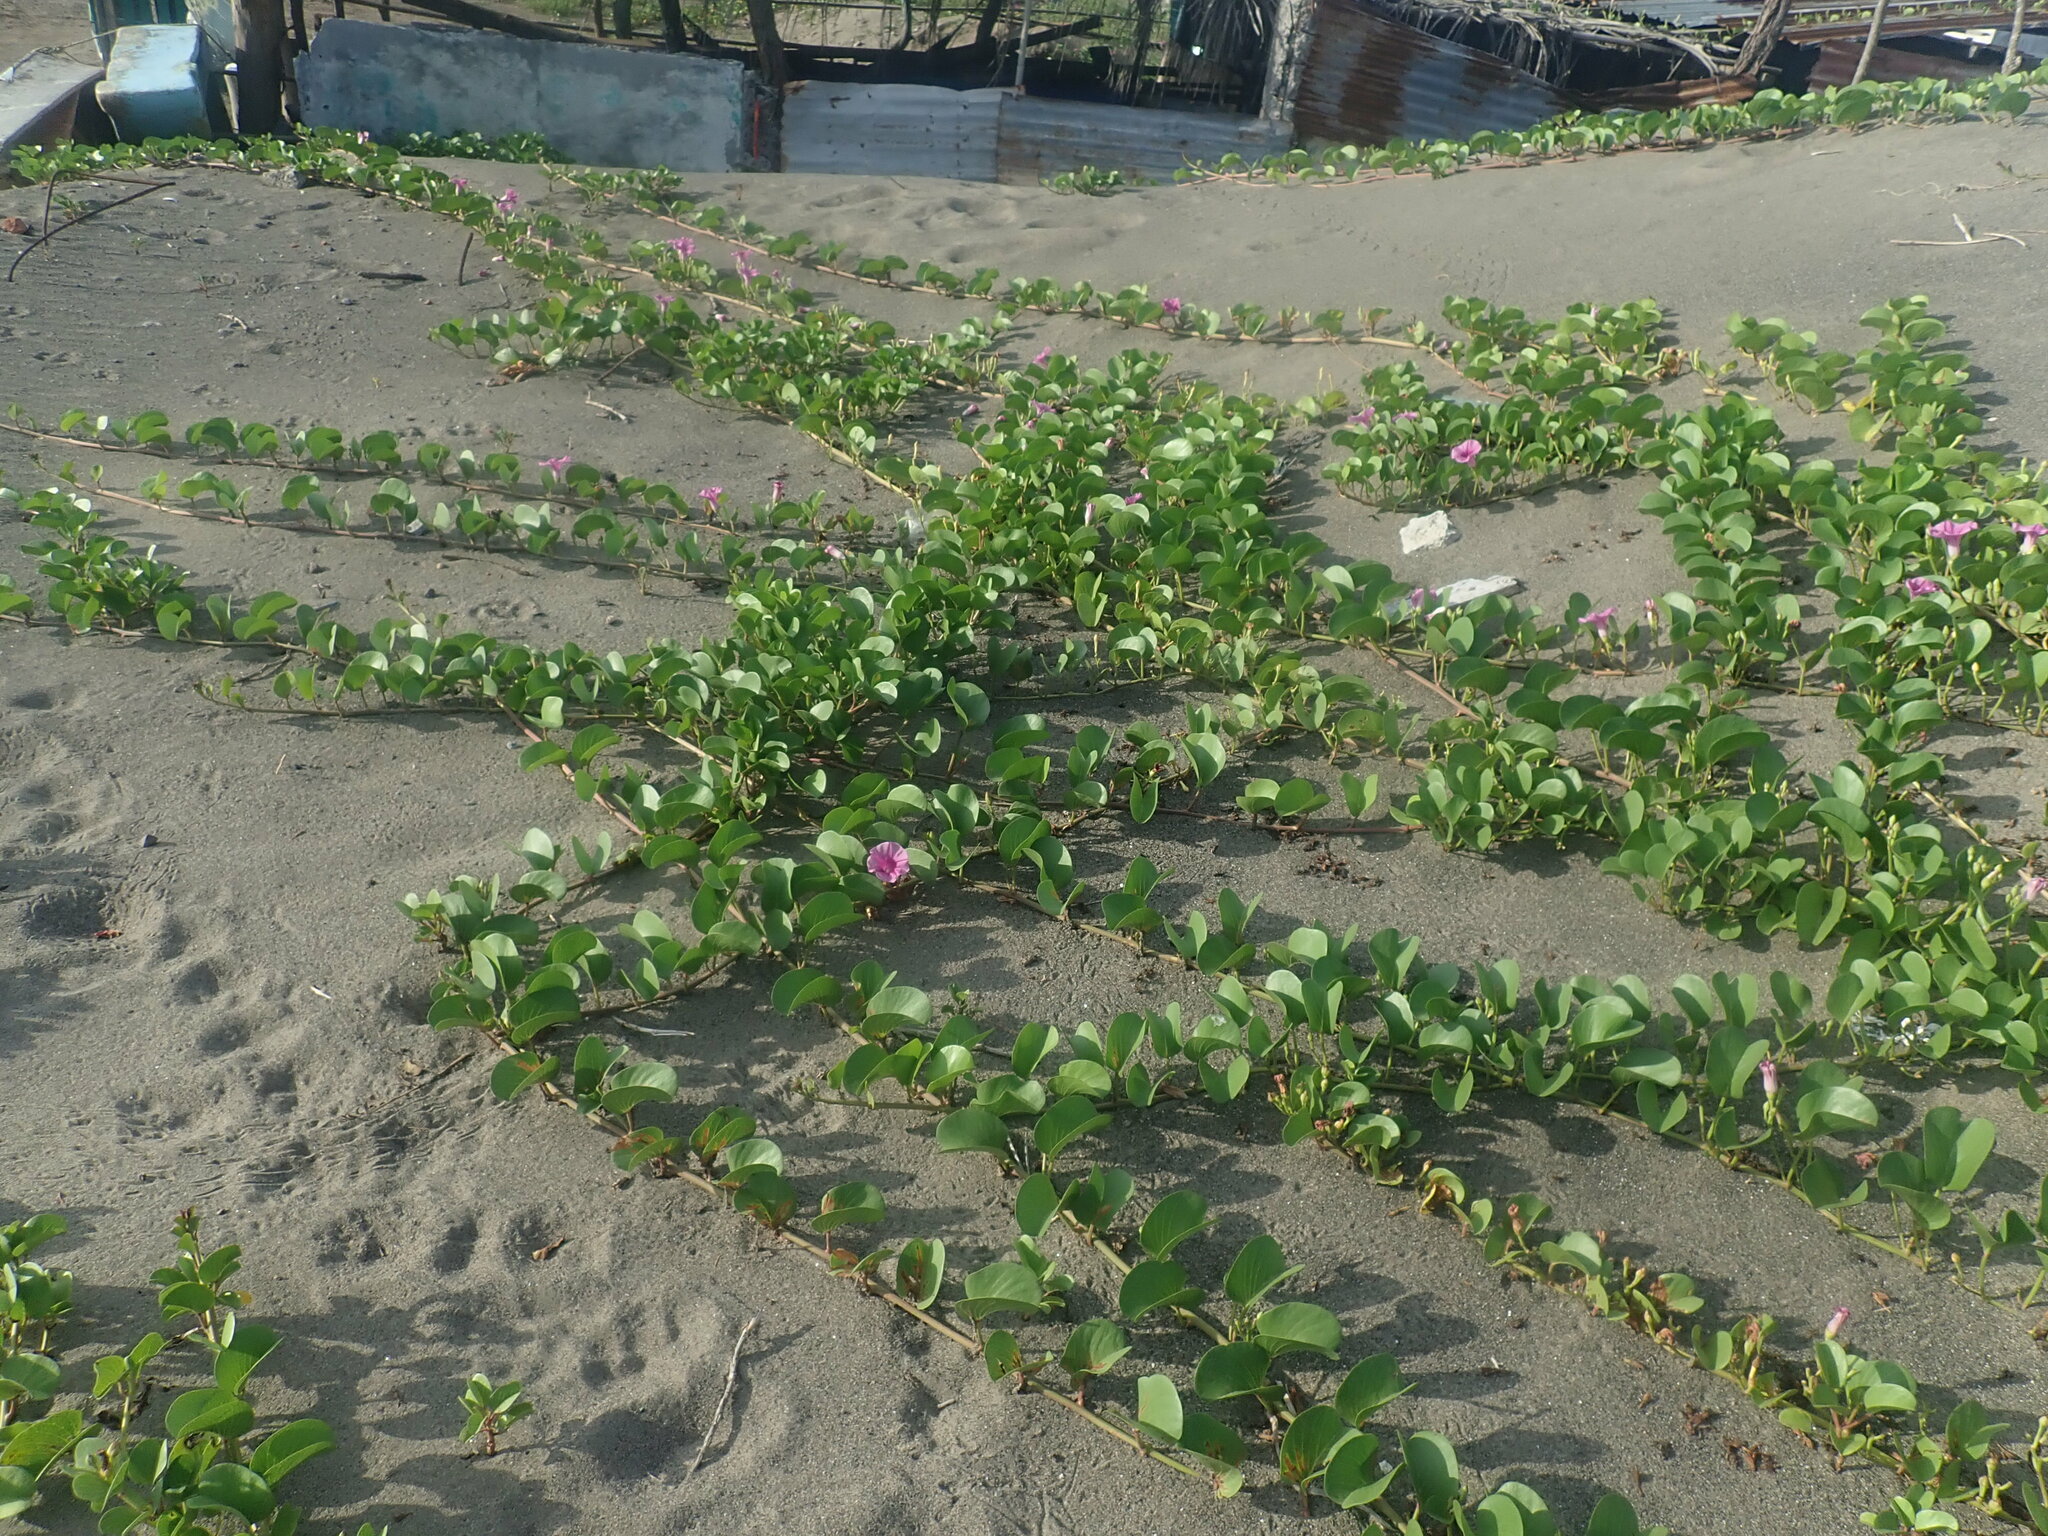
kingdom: Plantae
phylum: Tracheophyta
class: Magnoliopsida
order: Solanales
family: Convolvulaceae
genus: Ipomoea
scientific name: Ipomoea pes-caprae
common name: Beach morning glory
